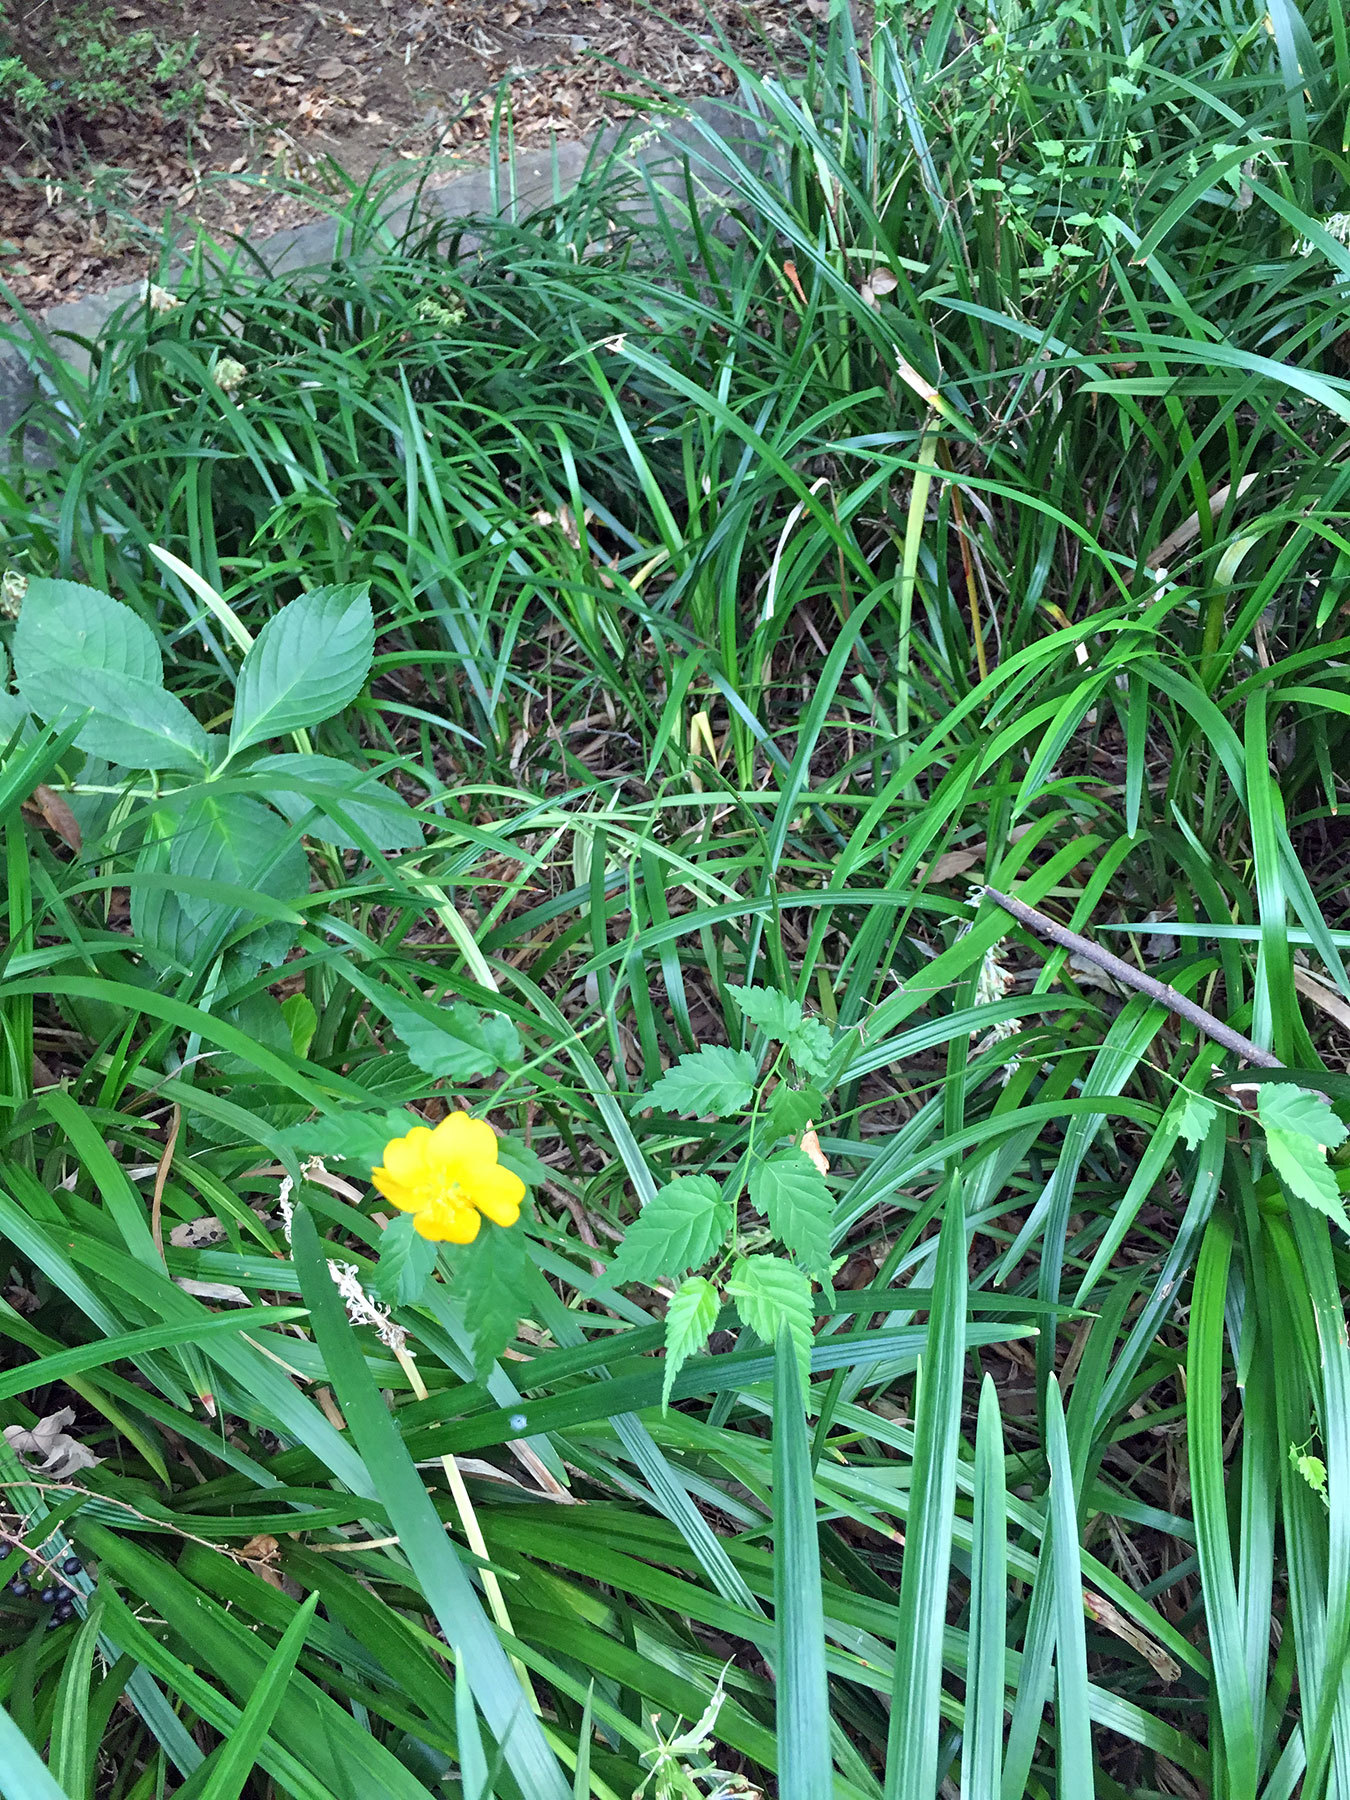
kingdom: Plantae
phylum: Tracheophyta
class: Magnoliopsida
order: Rosales
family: Rosaceae
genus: Kerria
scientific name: Kerria japonica
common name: Japanese kerria
